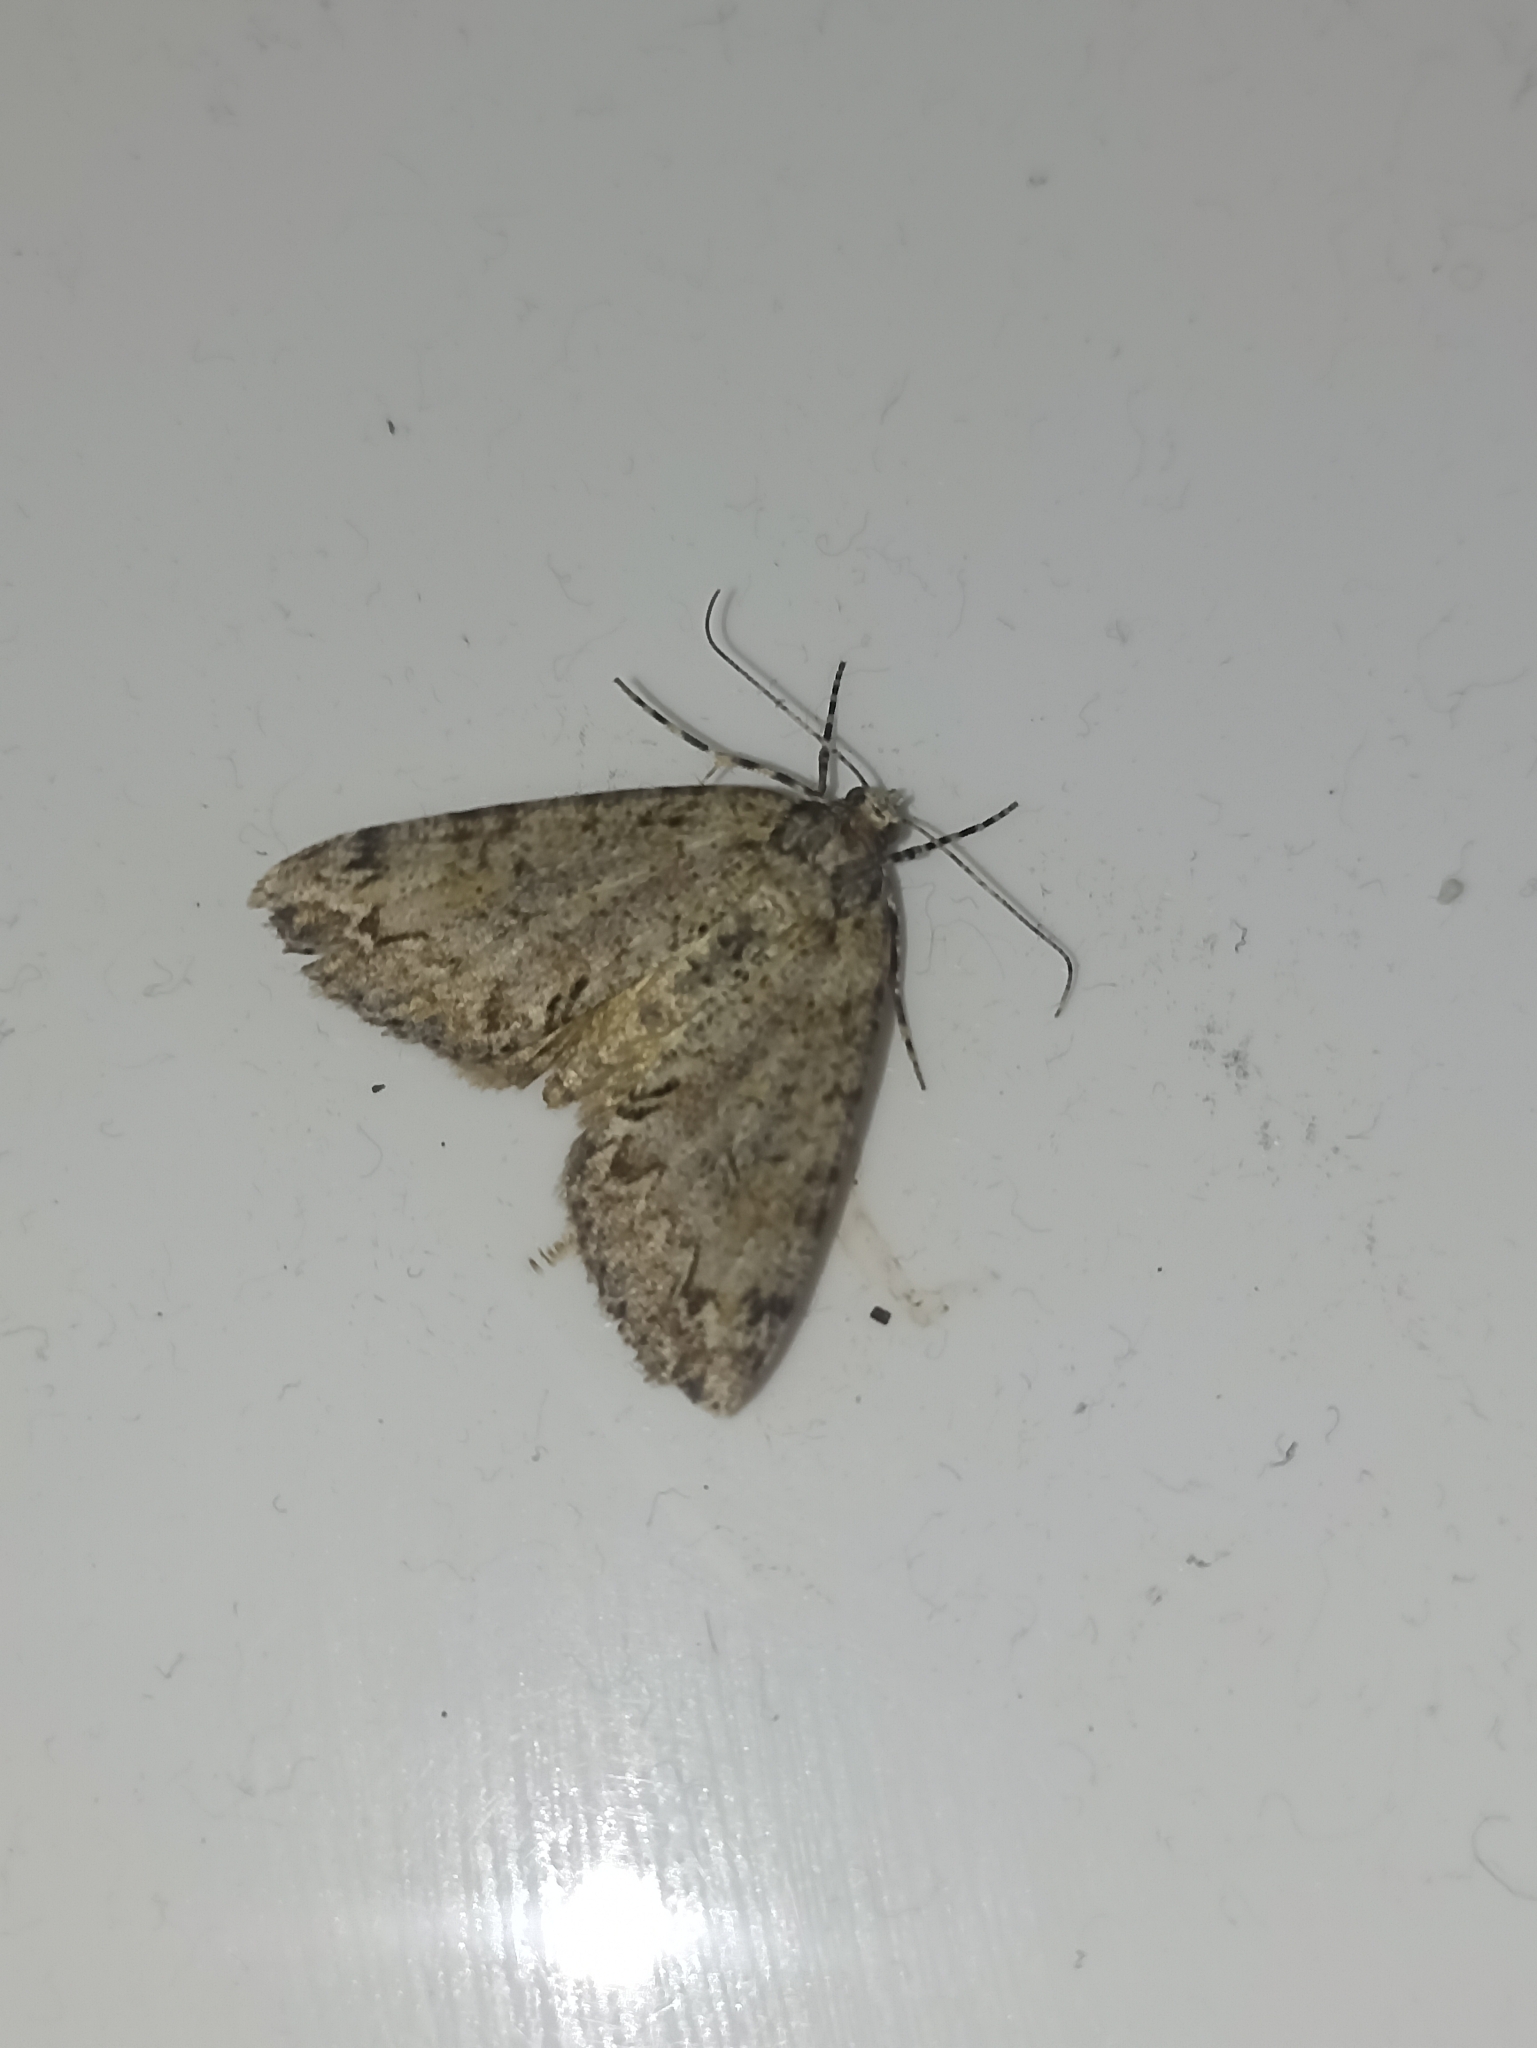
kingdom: Animalia
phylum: Arthropoda
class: Insecta
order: Lepidoptera
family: Geometridae
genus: Pseudocoremia
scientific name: Pseudocoremia suavis
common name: Common forest looper
